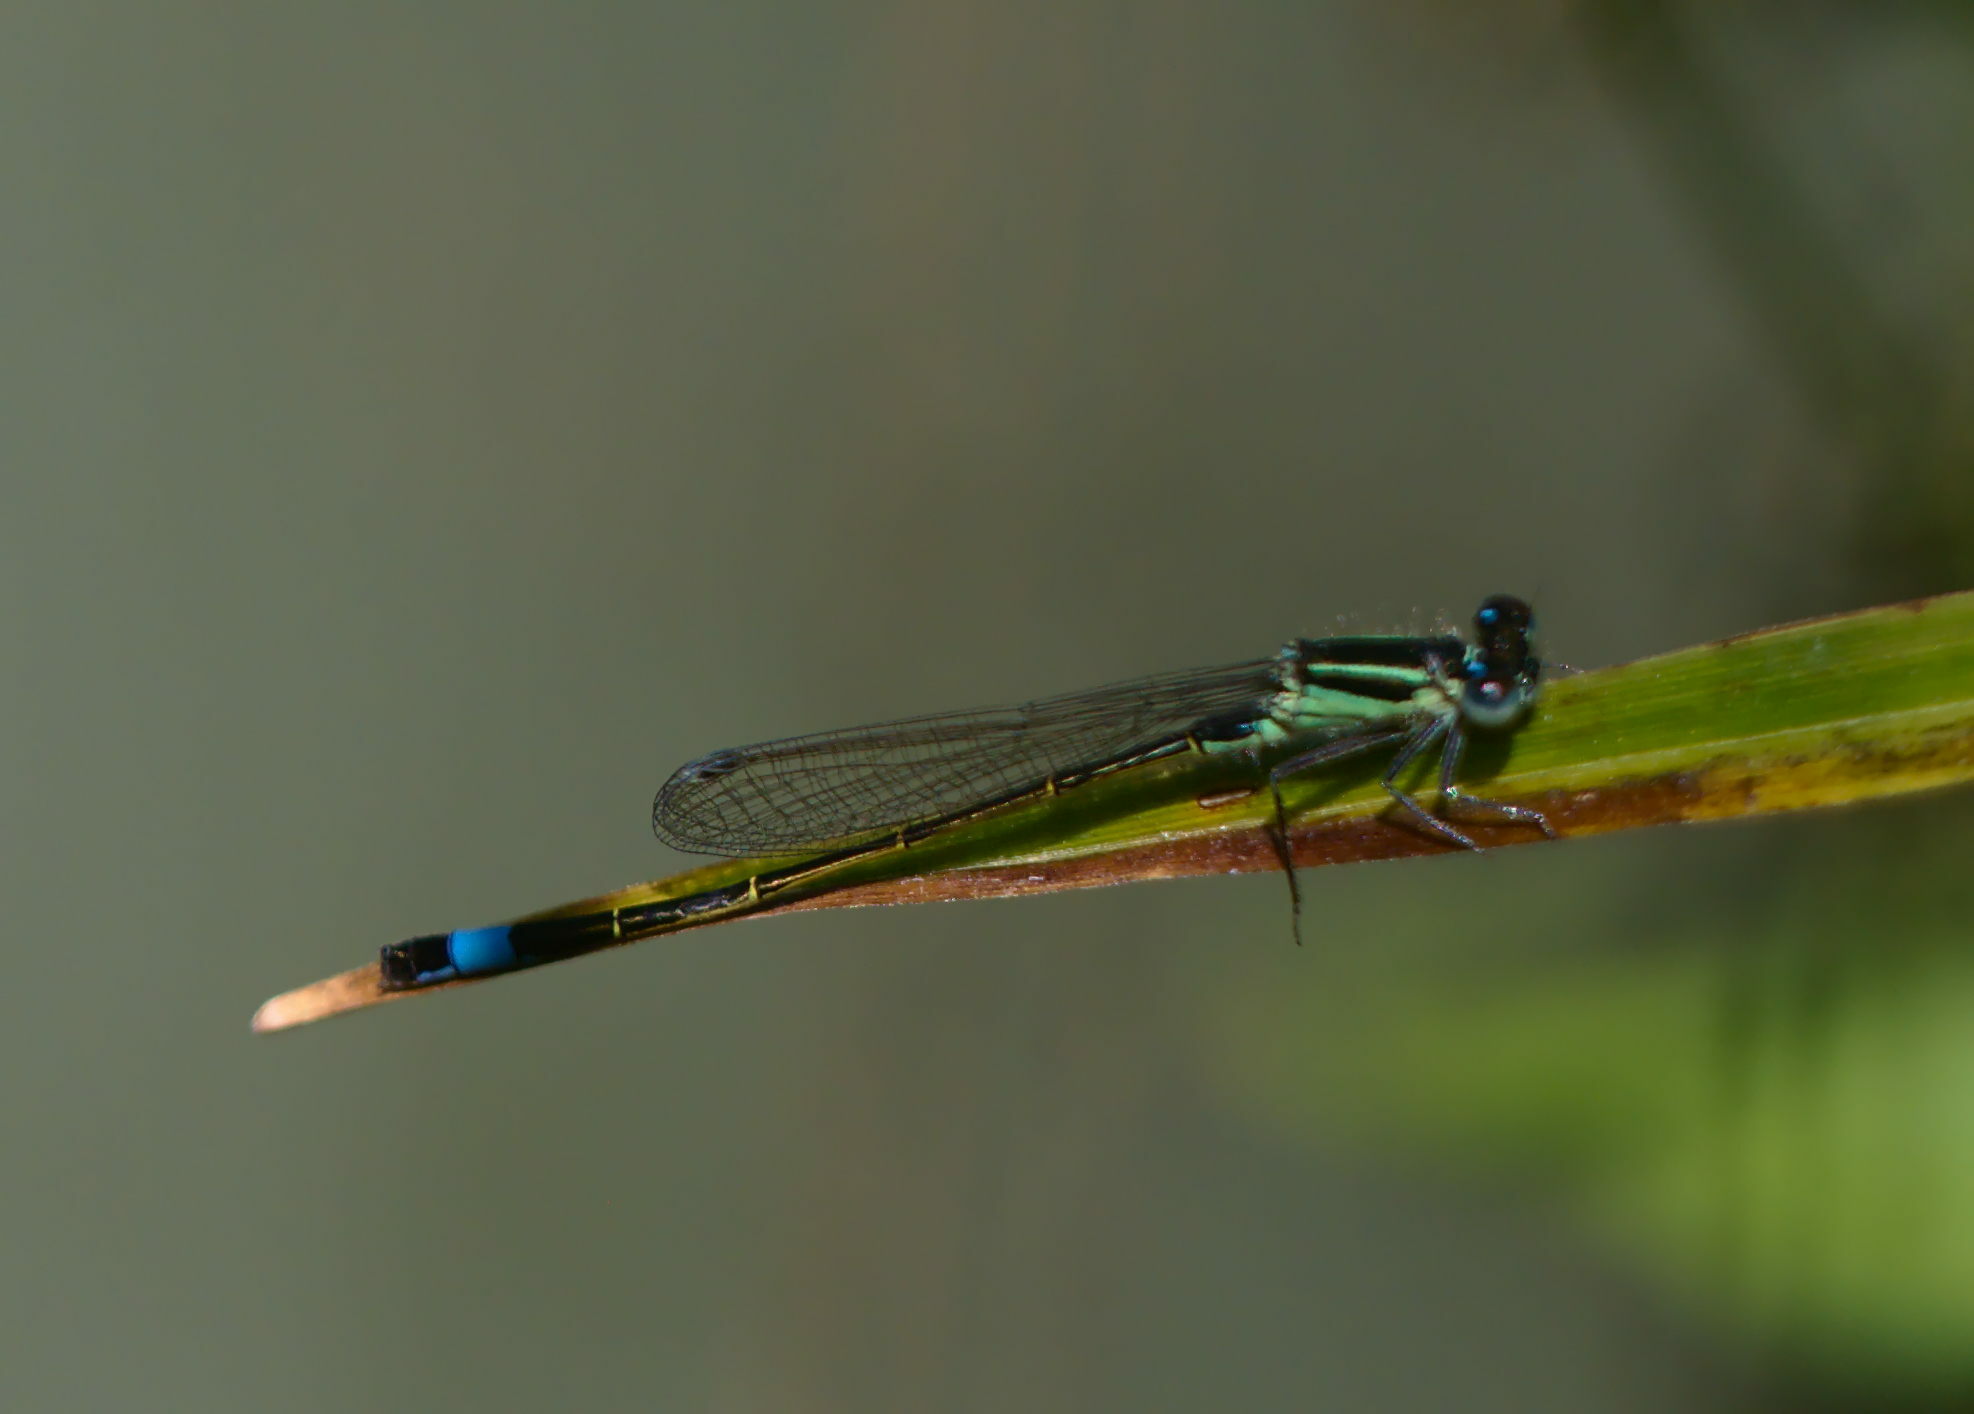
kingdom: Animalia
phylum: Arthropoda
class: Insecta
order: Odonata
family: Coenagrionidae
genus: Ischnura
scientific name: Ischnura elegans
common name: Blue-tailed damselfly
